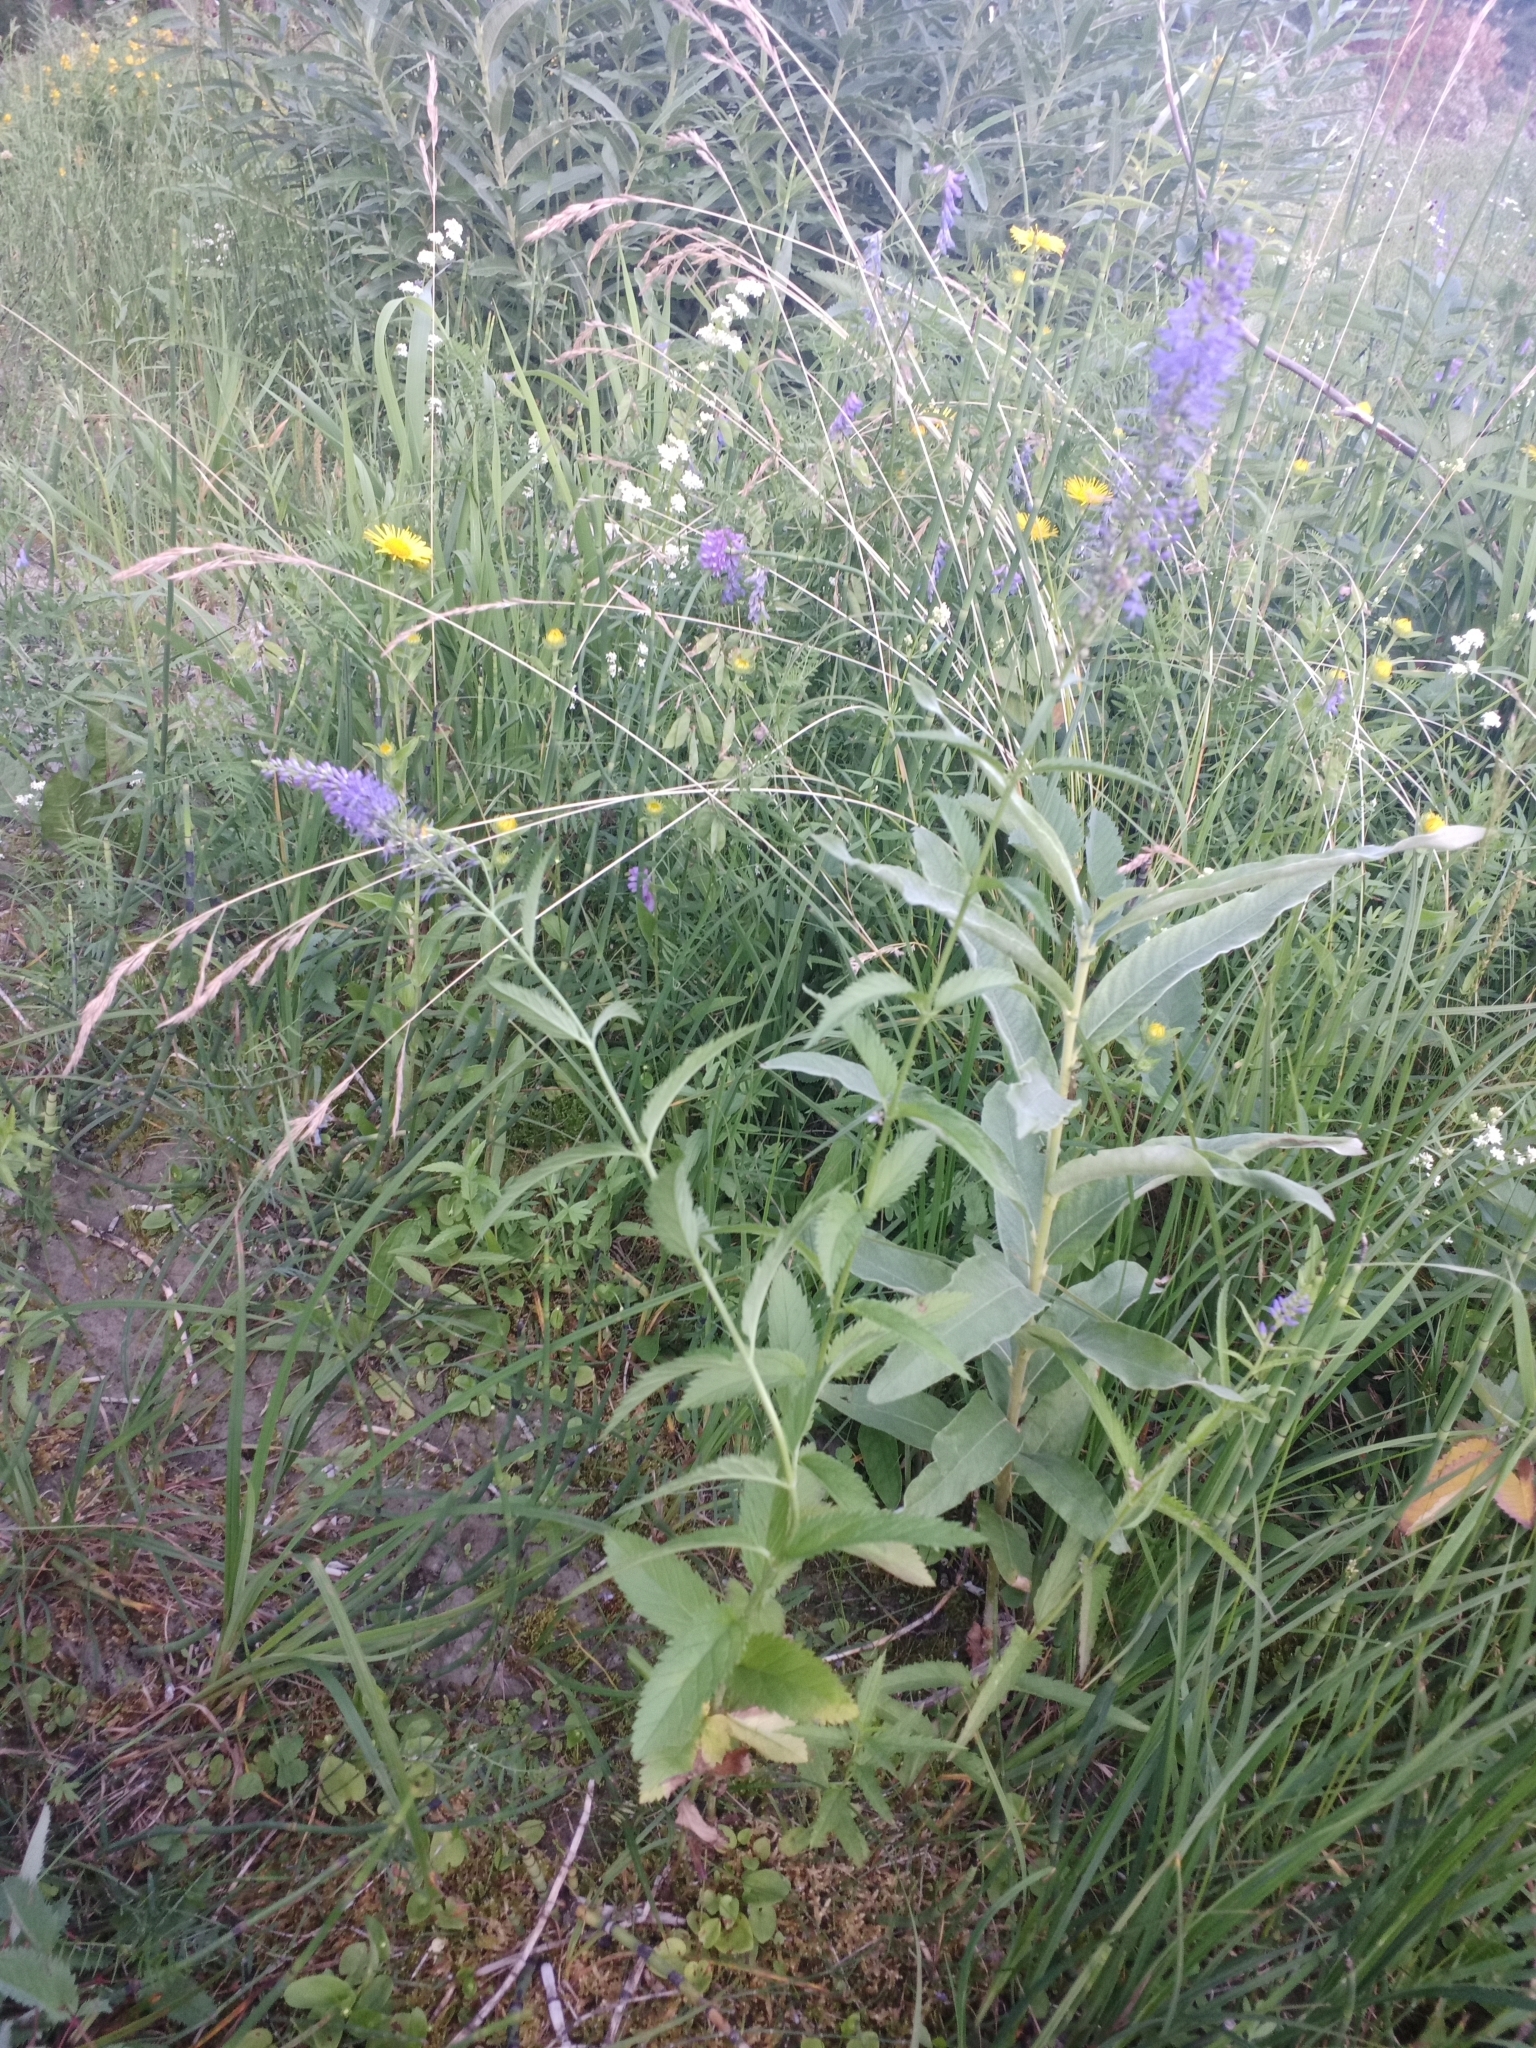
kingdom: Plantae
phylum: Tracheophyta
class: Magnoliopsida
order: Lamiales
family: Plantaginaceae
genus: Veronica
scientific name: Veronica longifolia
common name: Garden speedwell
